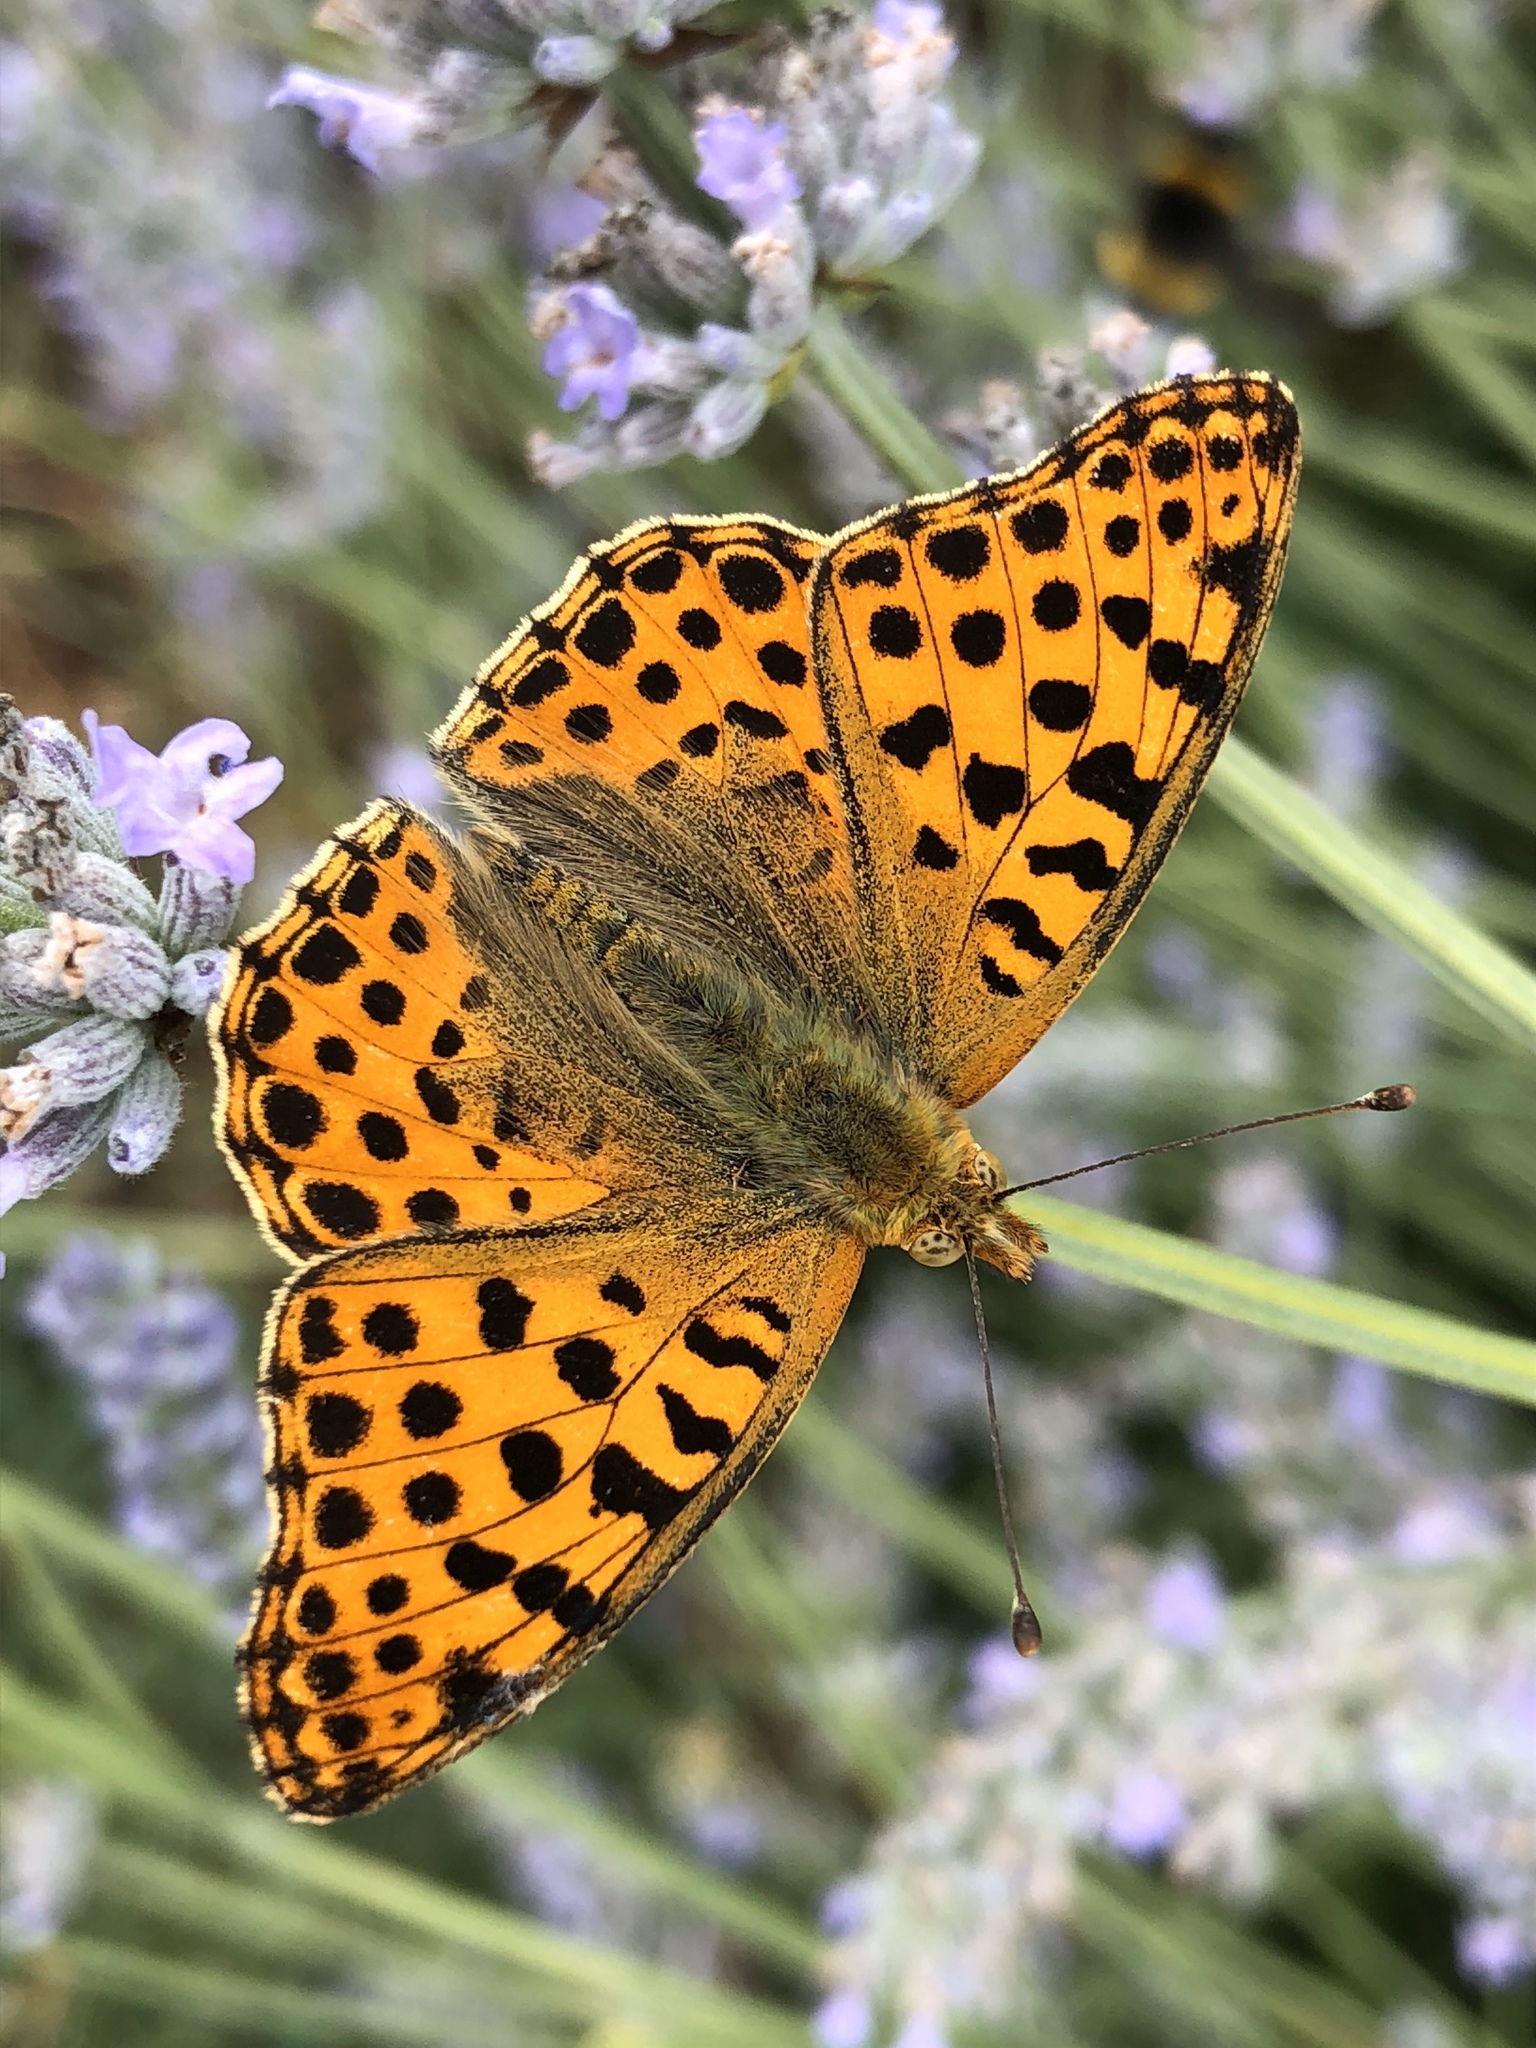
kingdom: Animalia
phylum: Arthropoda
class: Insecta
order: Lepidoptera
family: Nymphalidae
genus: Issoria
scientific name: Issoria lathonia
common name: Queen of spain fritillary
